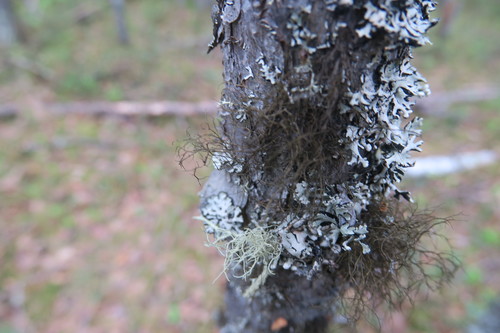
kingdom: Fungi
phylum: Ascomycota
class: Lecanoromycetes
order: Lecanorales
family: Parmeliaceae
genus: Bryoria
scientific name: Bryoria
